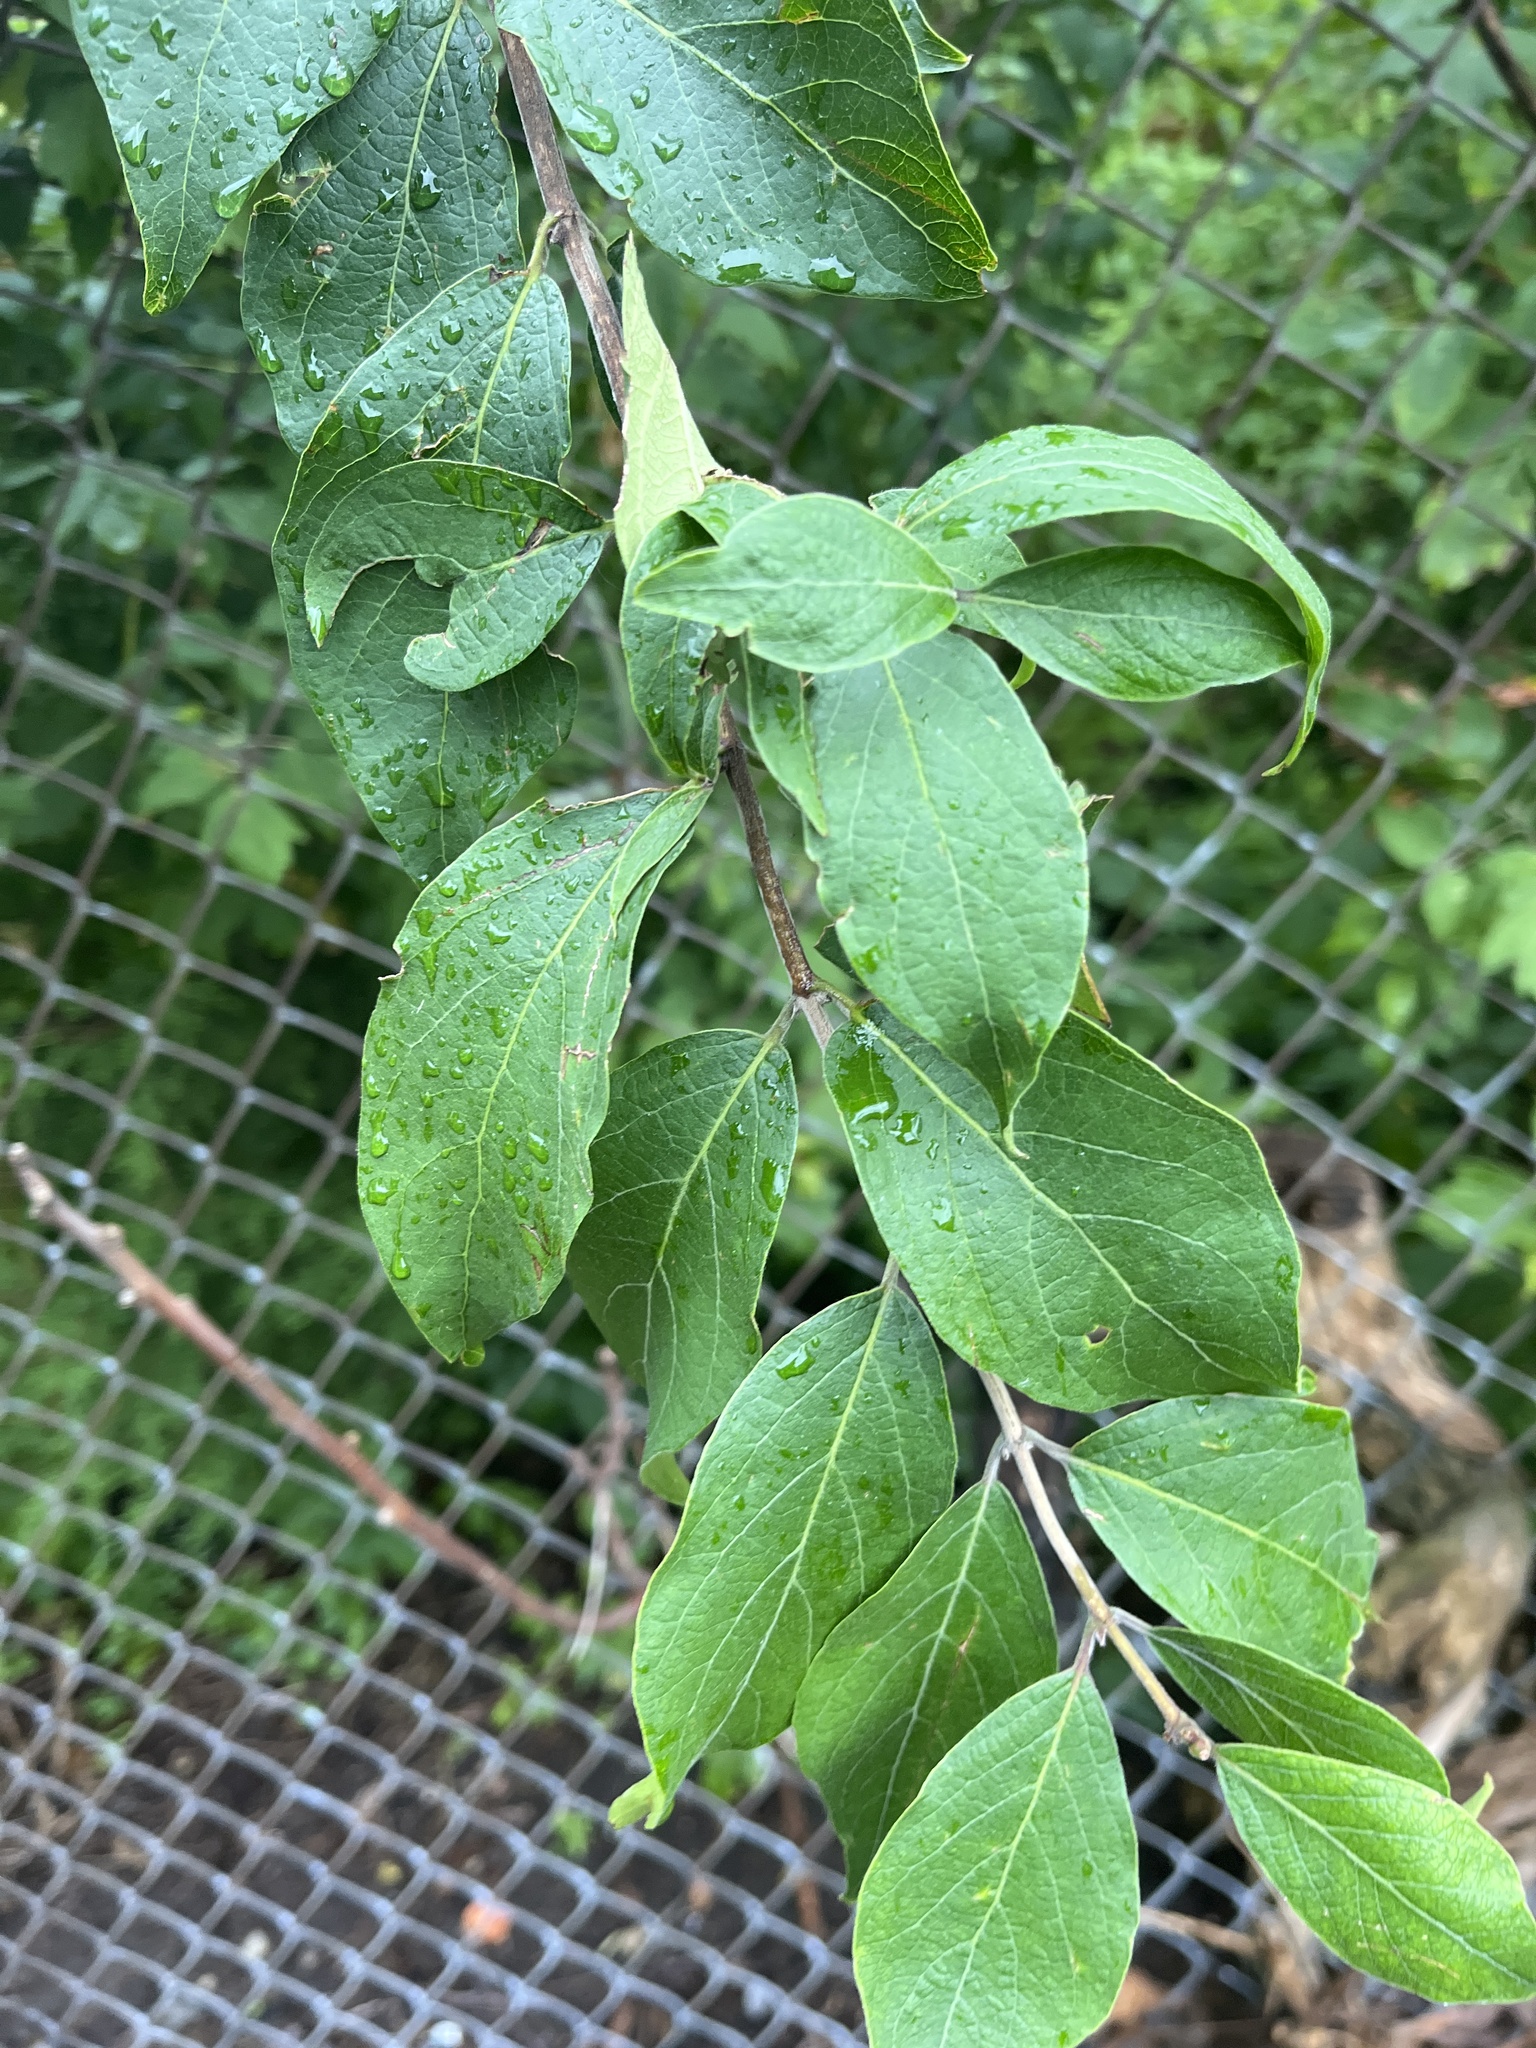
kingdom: Plantae
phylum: Tracheophyta
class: Magnoliopsida
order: Dipsacales
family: Caprifoliaceae
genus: Lonicera
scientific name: Lonicera maackii
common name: Amur honeysuckle
